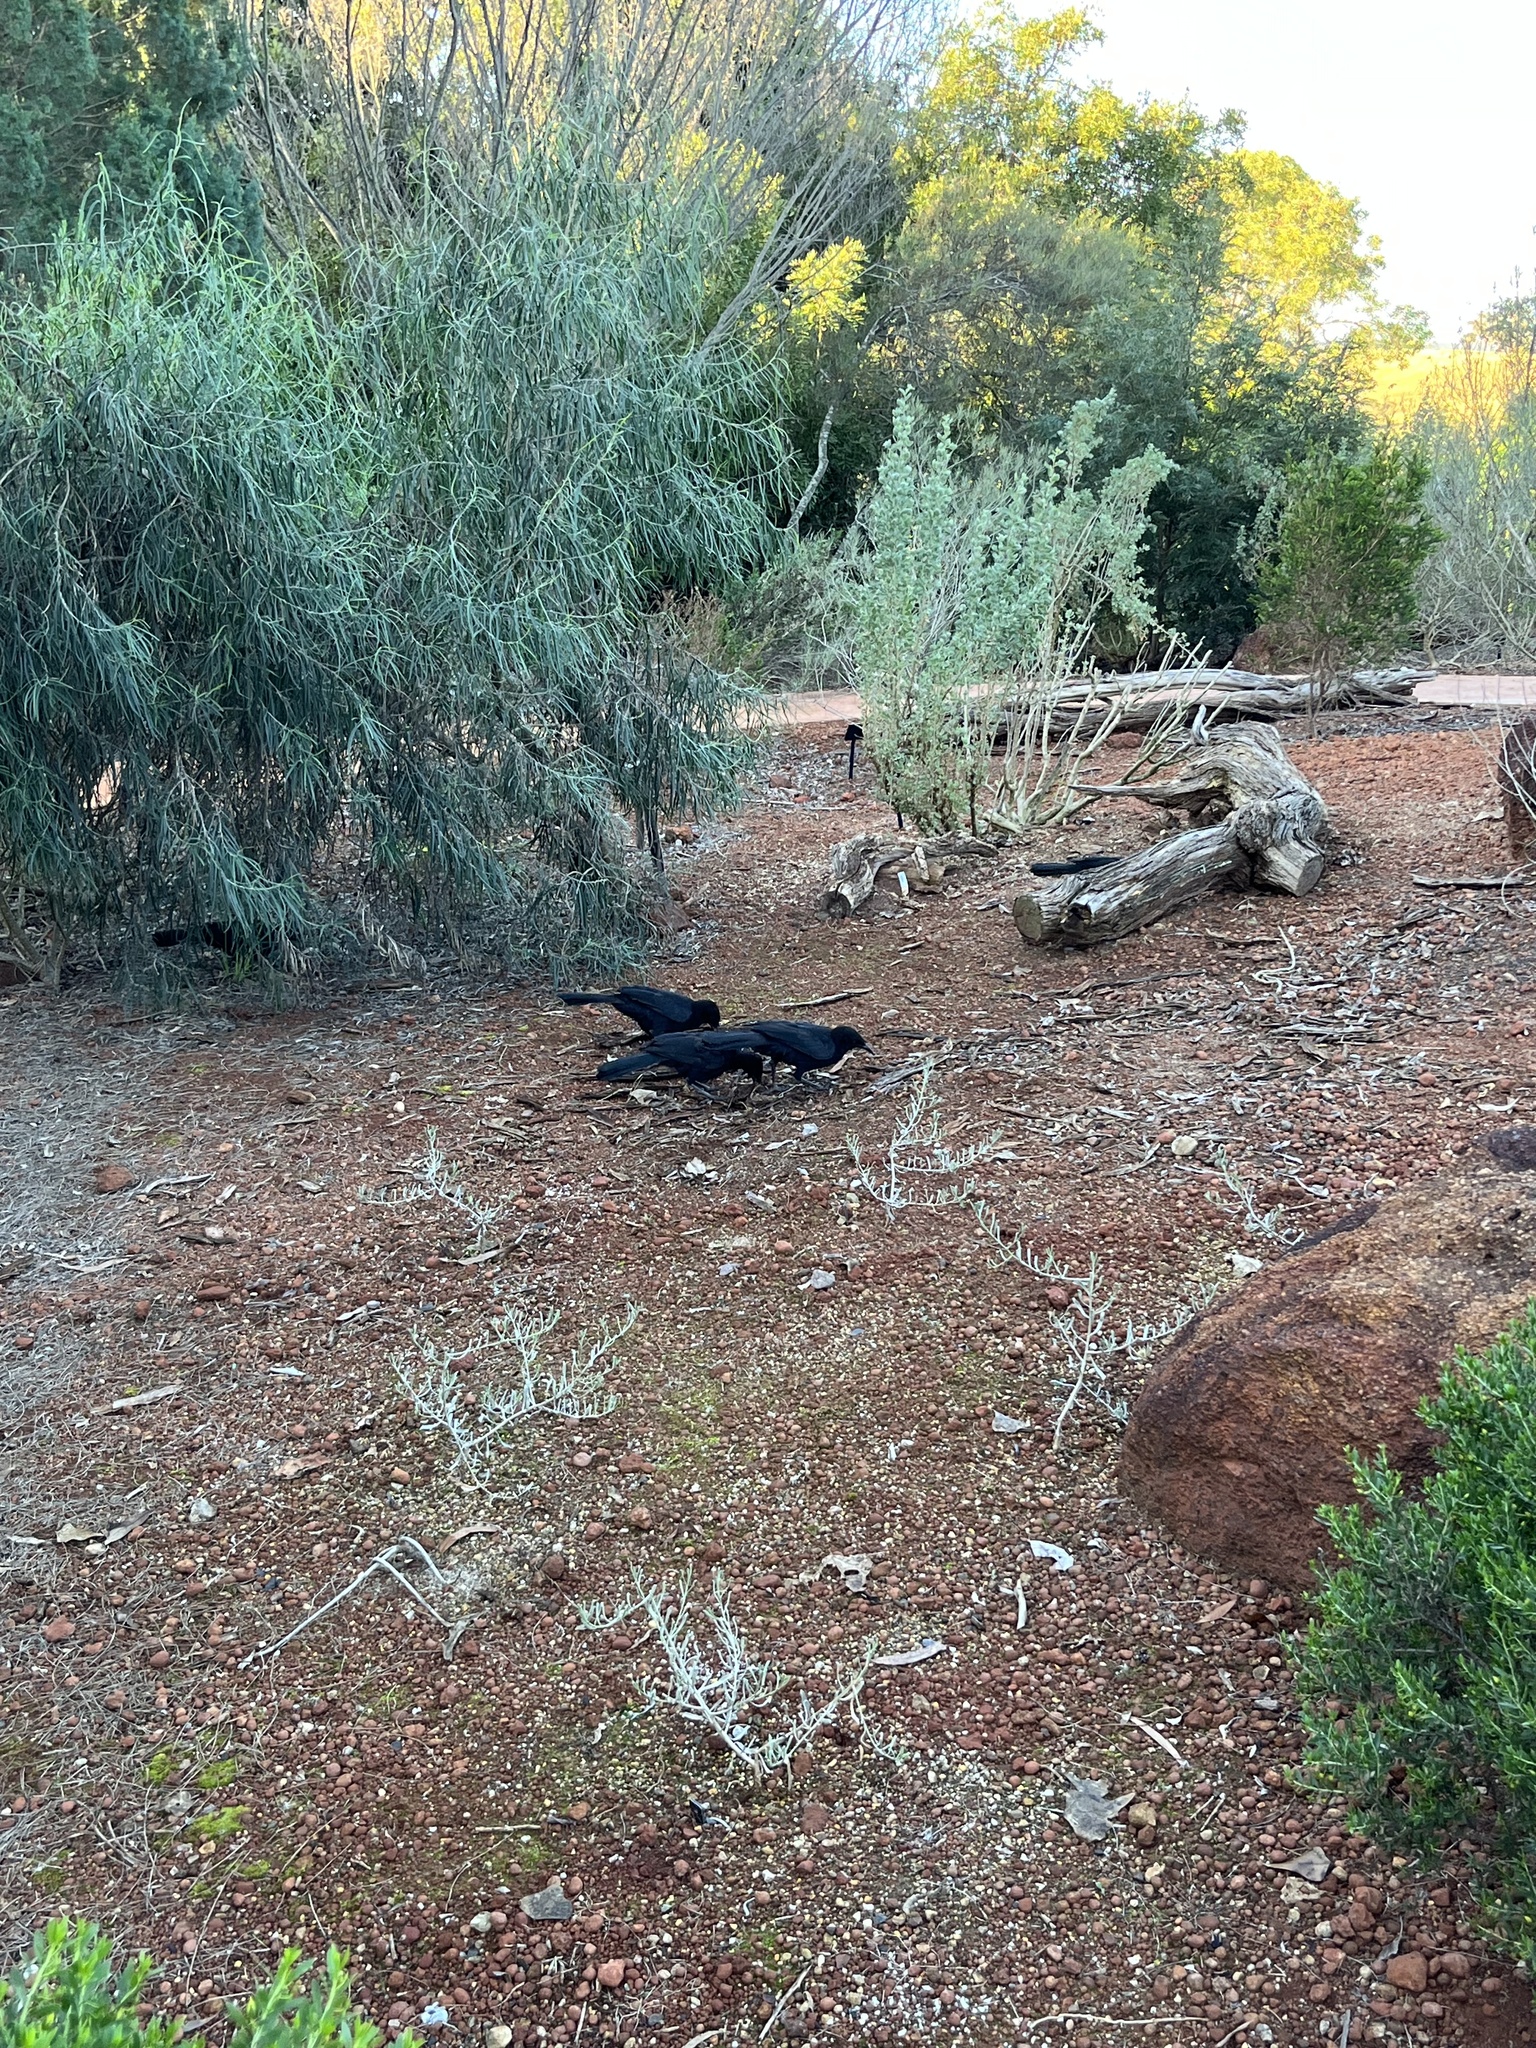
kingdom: Animalia
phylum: Chordata
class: Aves
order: Passeriformes
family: Corcoracidae
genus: Corcorax
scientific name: Corcorax melanoramphos
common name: White-winged chough
